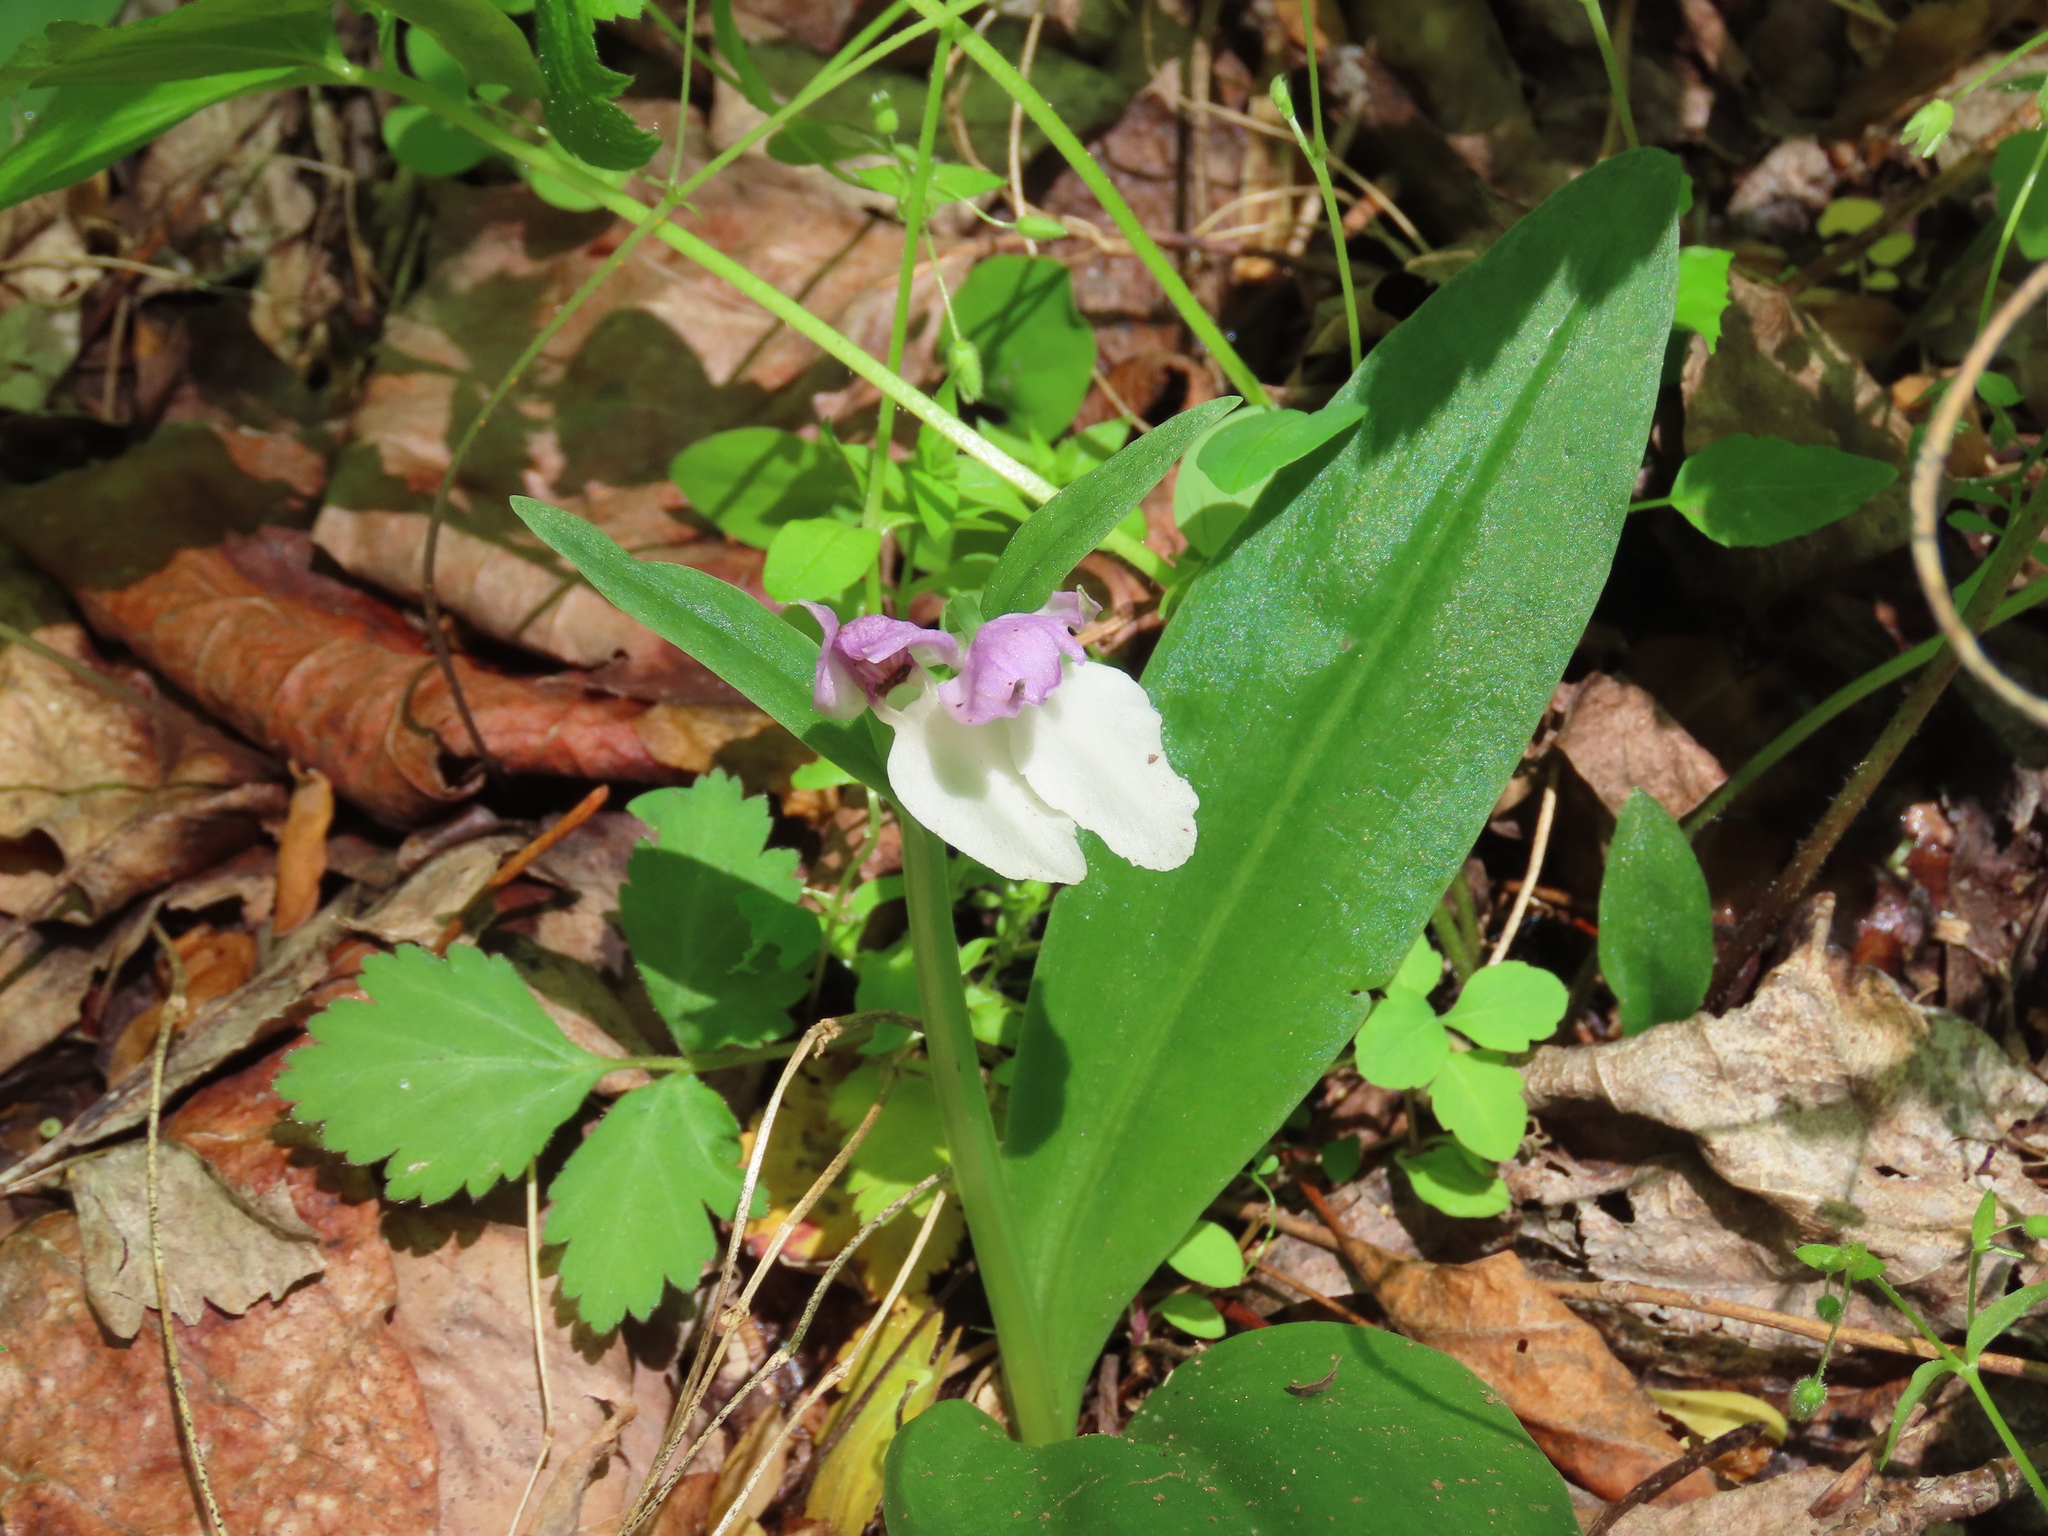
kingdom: Plantae
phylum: Tracheophyta
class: Liliopsida
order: Asparagales
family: Orchidaceae
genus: Galearis
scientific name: Galearis spectabilis
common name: Purple-hooded orchis
